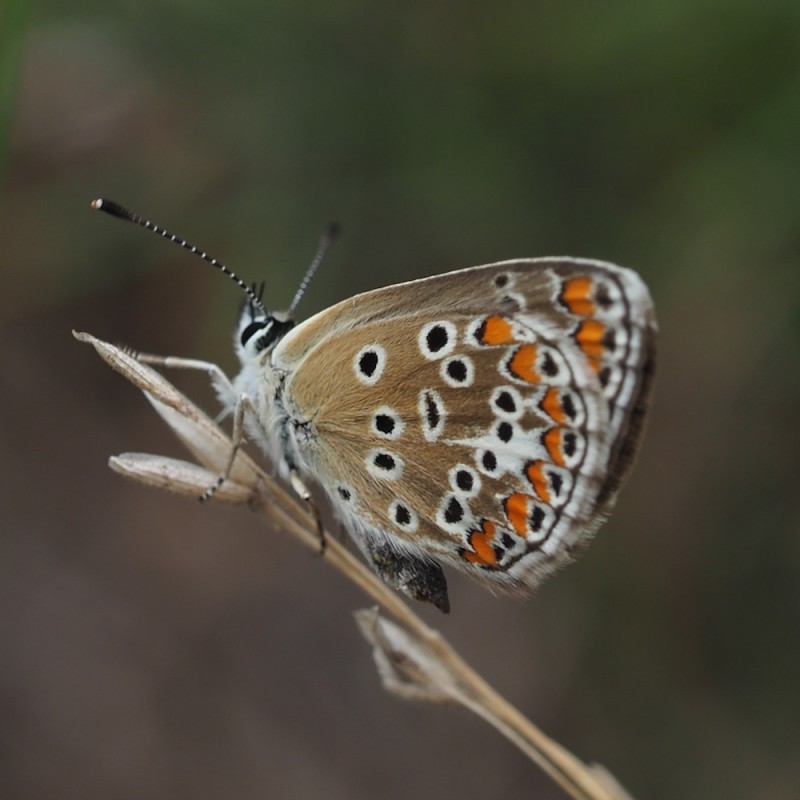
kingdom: Animalia
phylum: Arthropoda
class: Insecta
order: Lepidoptera
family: Lycaenidae
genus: Aricia
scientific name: Aricia agestis
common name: Brown argus
